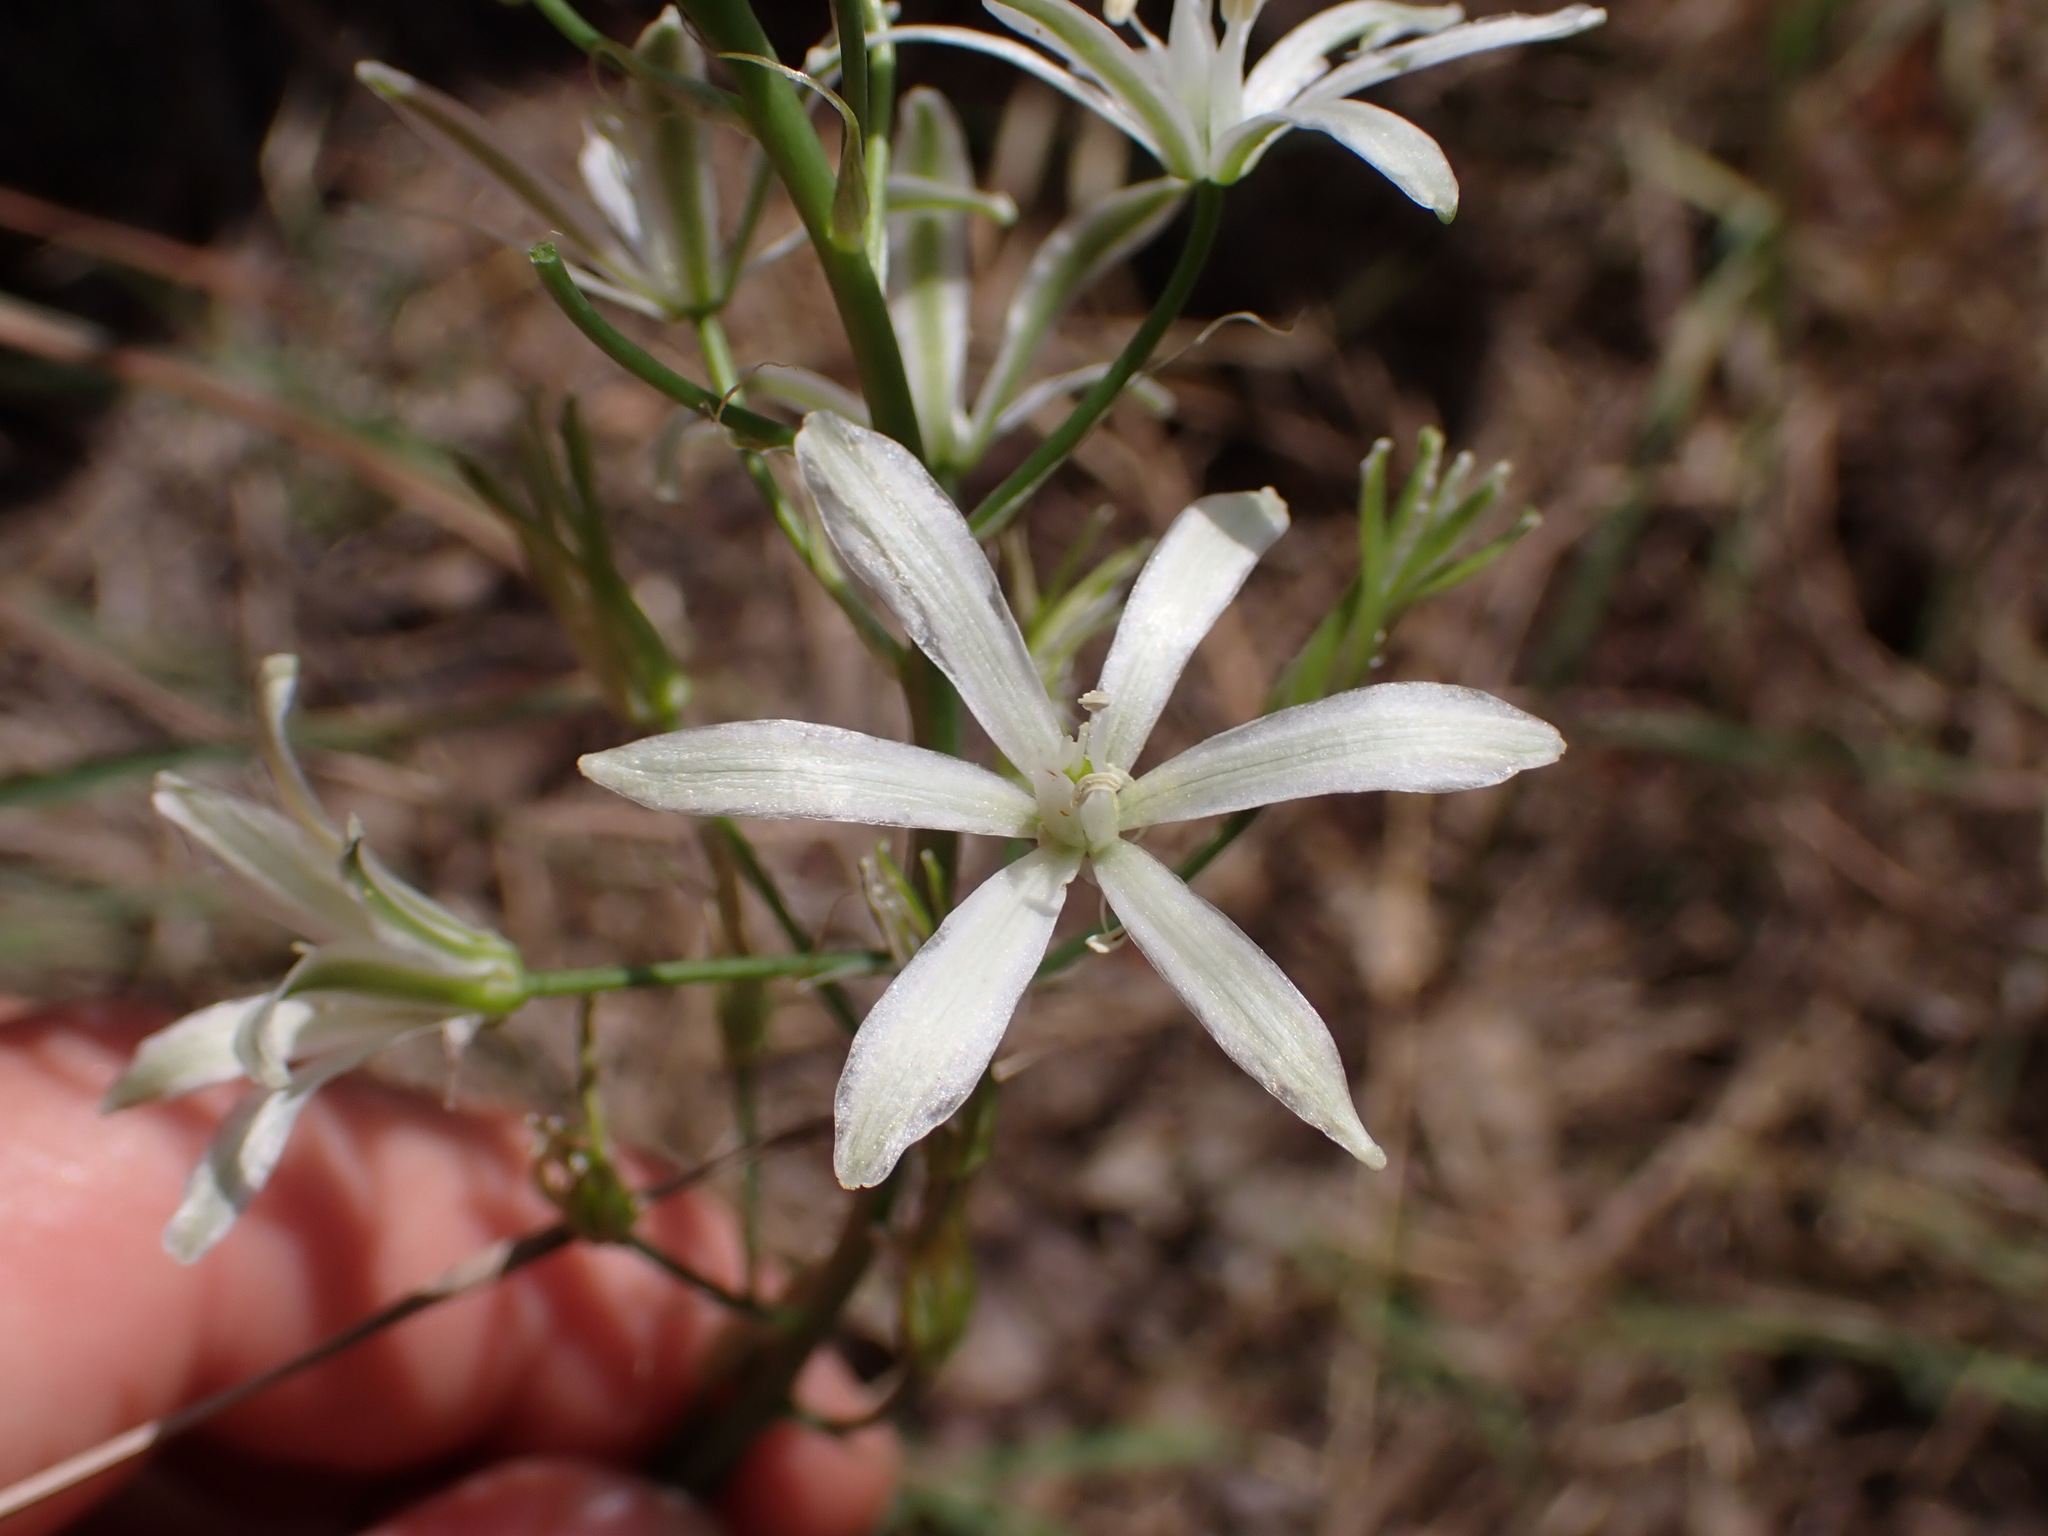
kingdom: Plantae
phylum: Tracheophyta
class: Liliopsida
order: Asparagales
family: Asparagaceae
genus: Ornithogalum
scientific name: Ornithogalum narbonense
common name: Bath-asparagus
